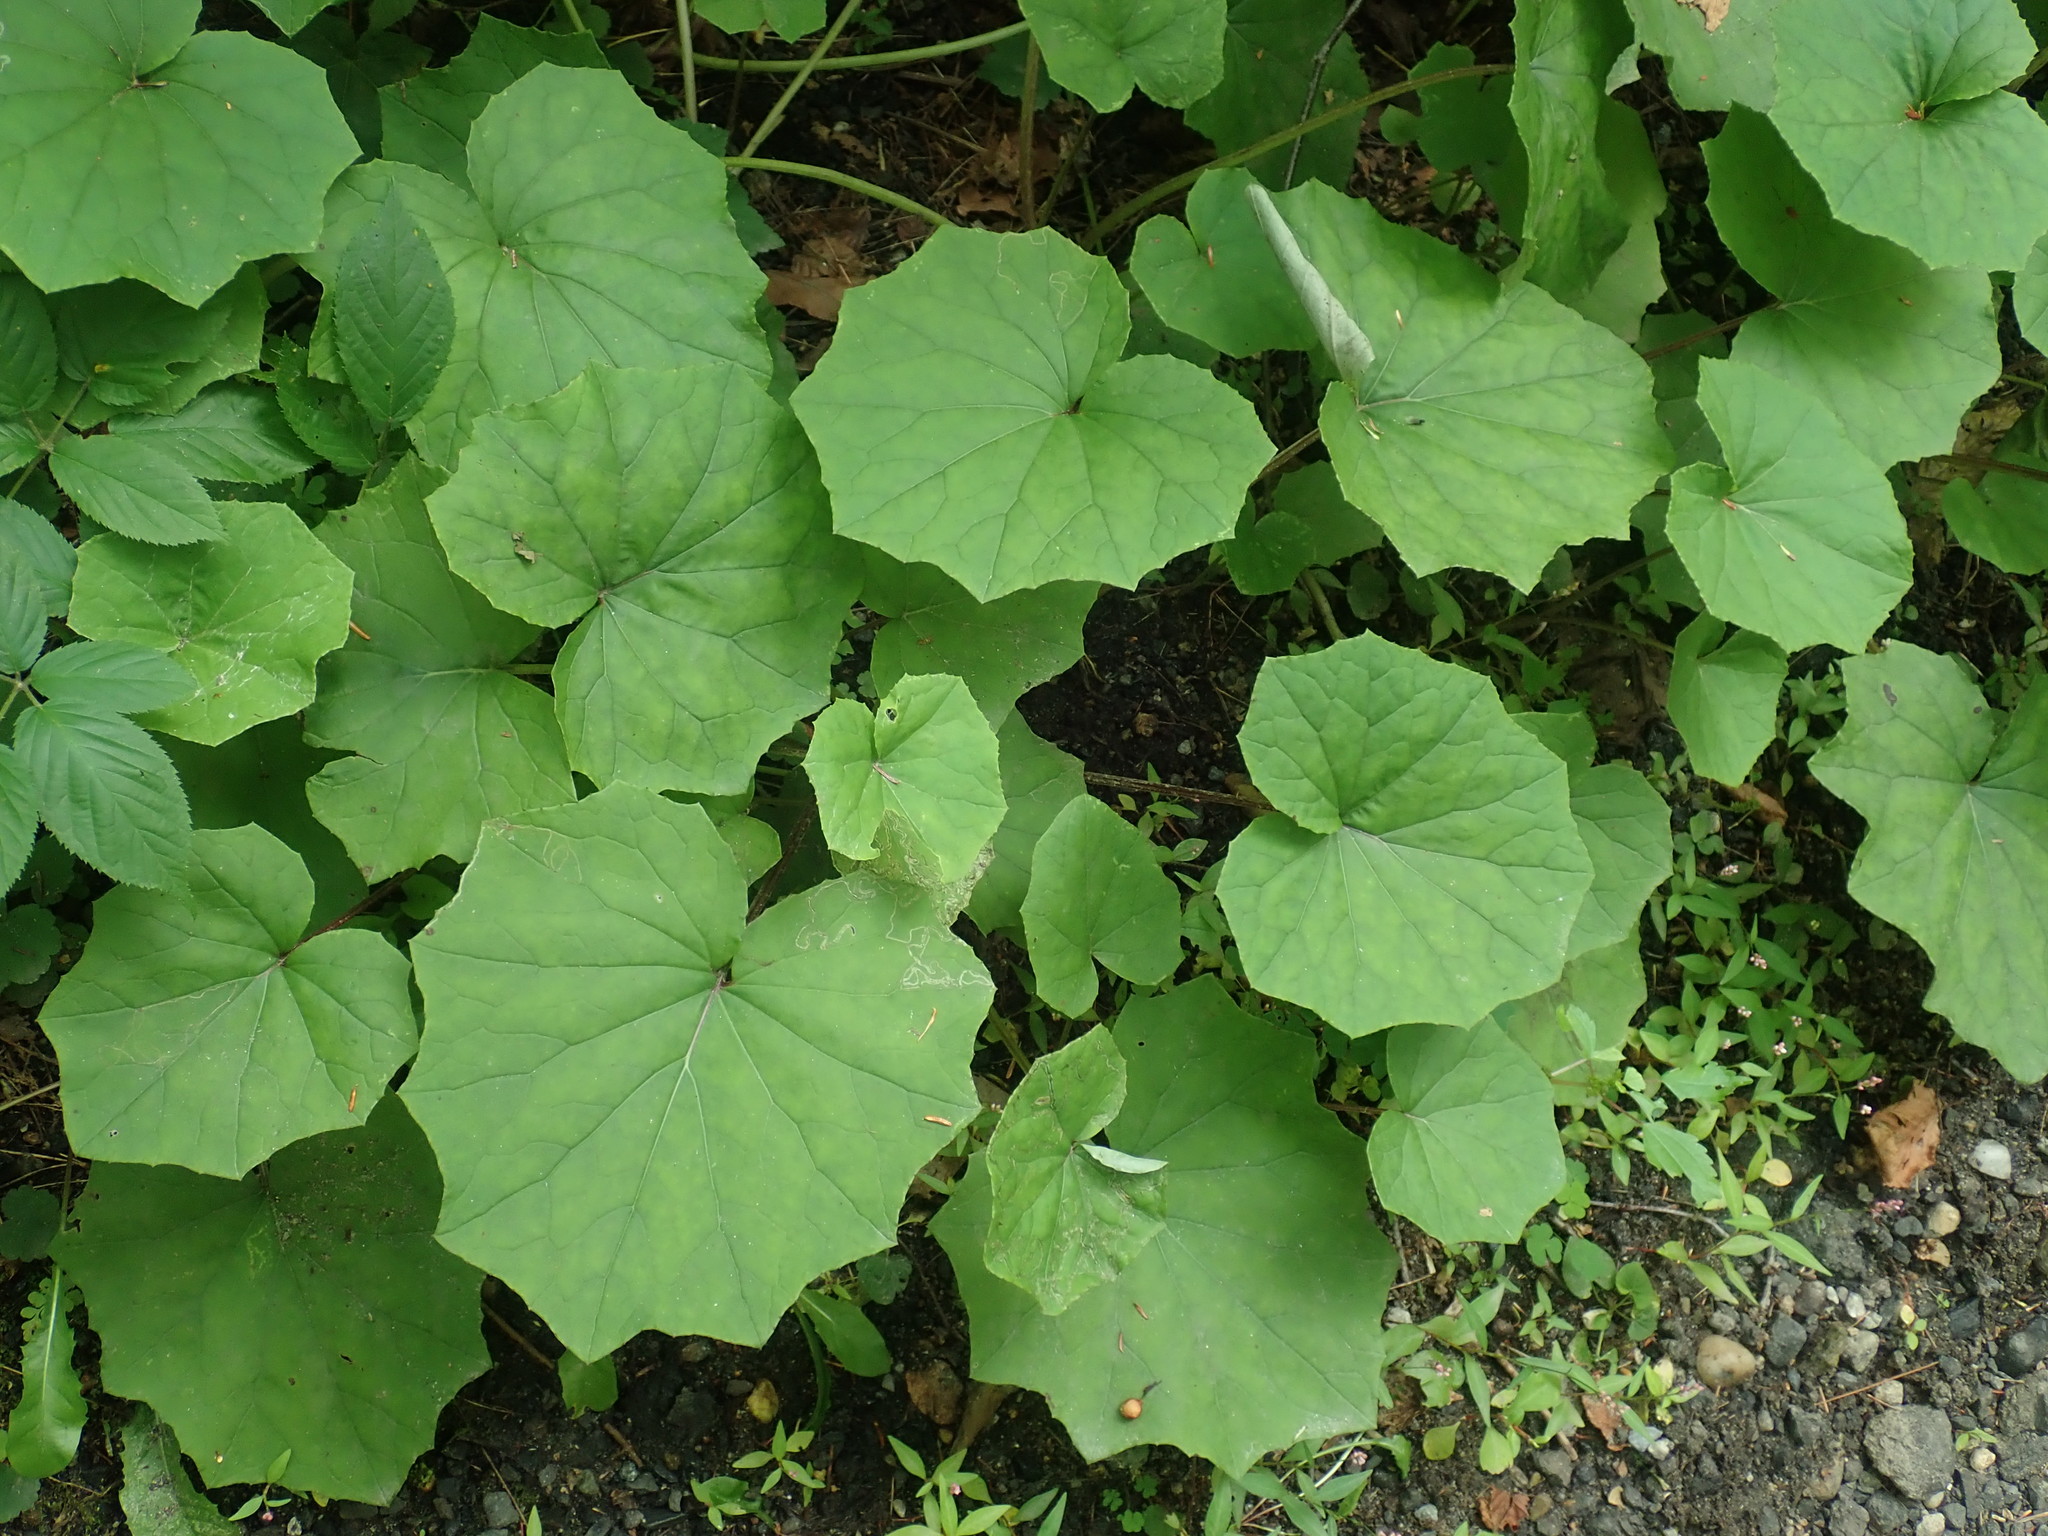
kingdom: Plantae
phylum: Tracheophyta
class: Magnoliopsida
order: Asterales
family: Asteraceae
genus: Tussilago
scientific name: Tussilago farfara
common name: Coltsfoot
